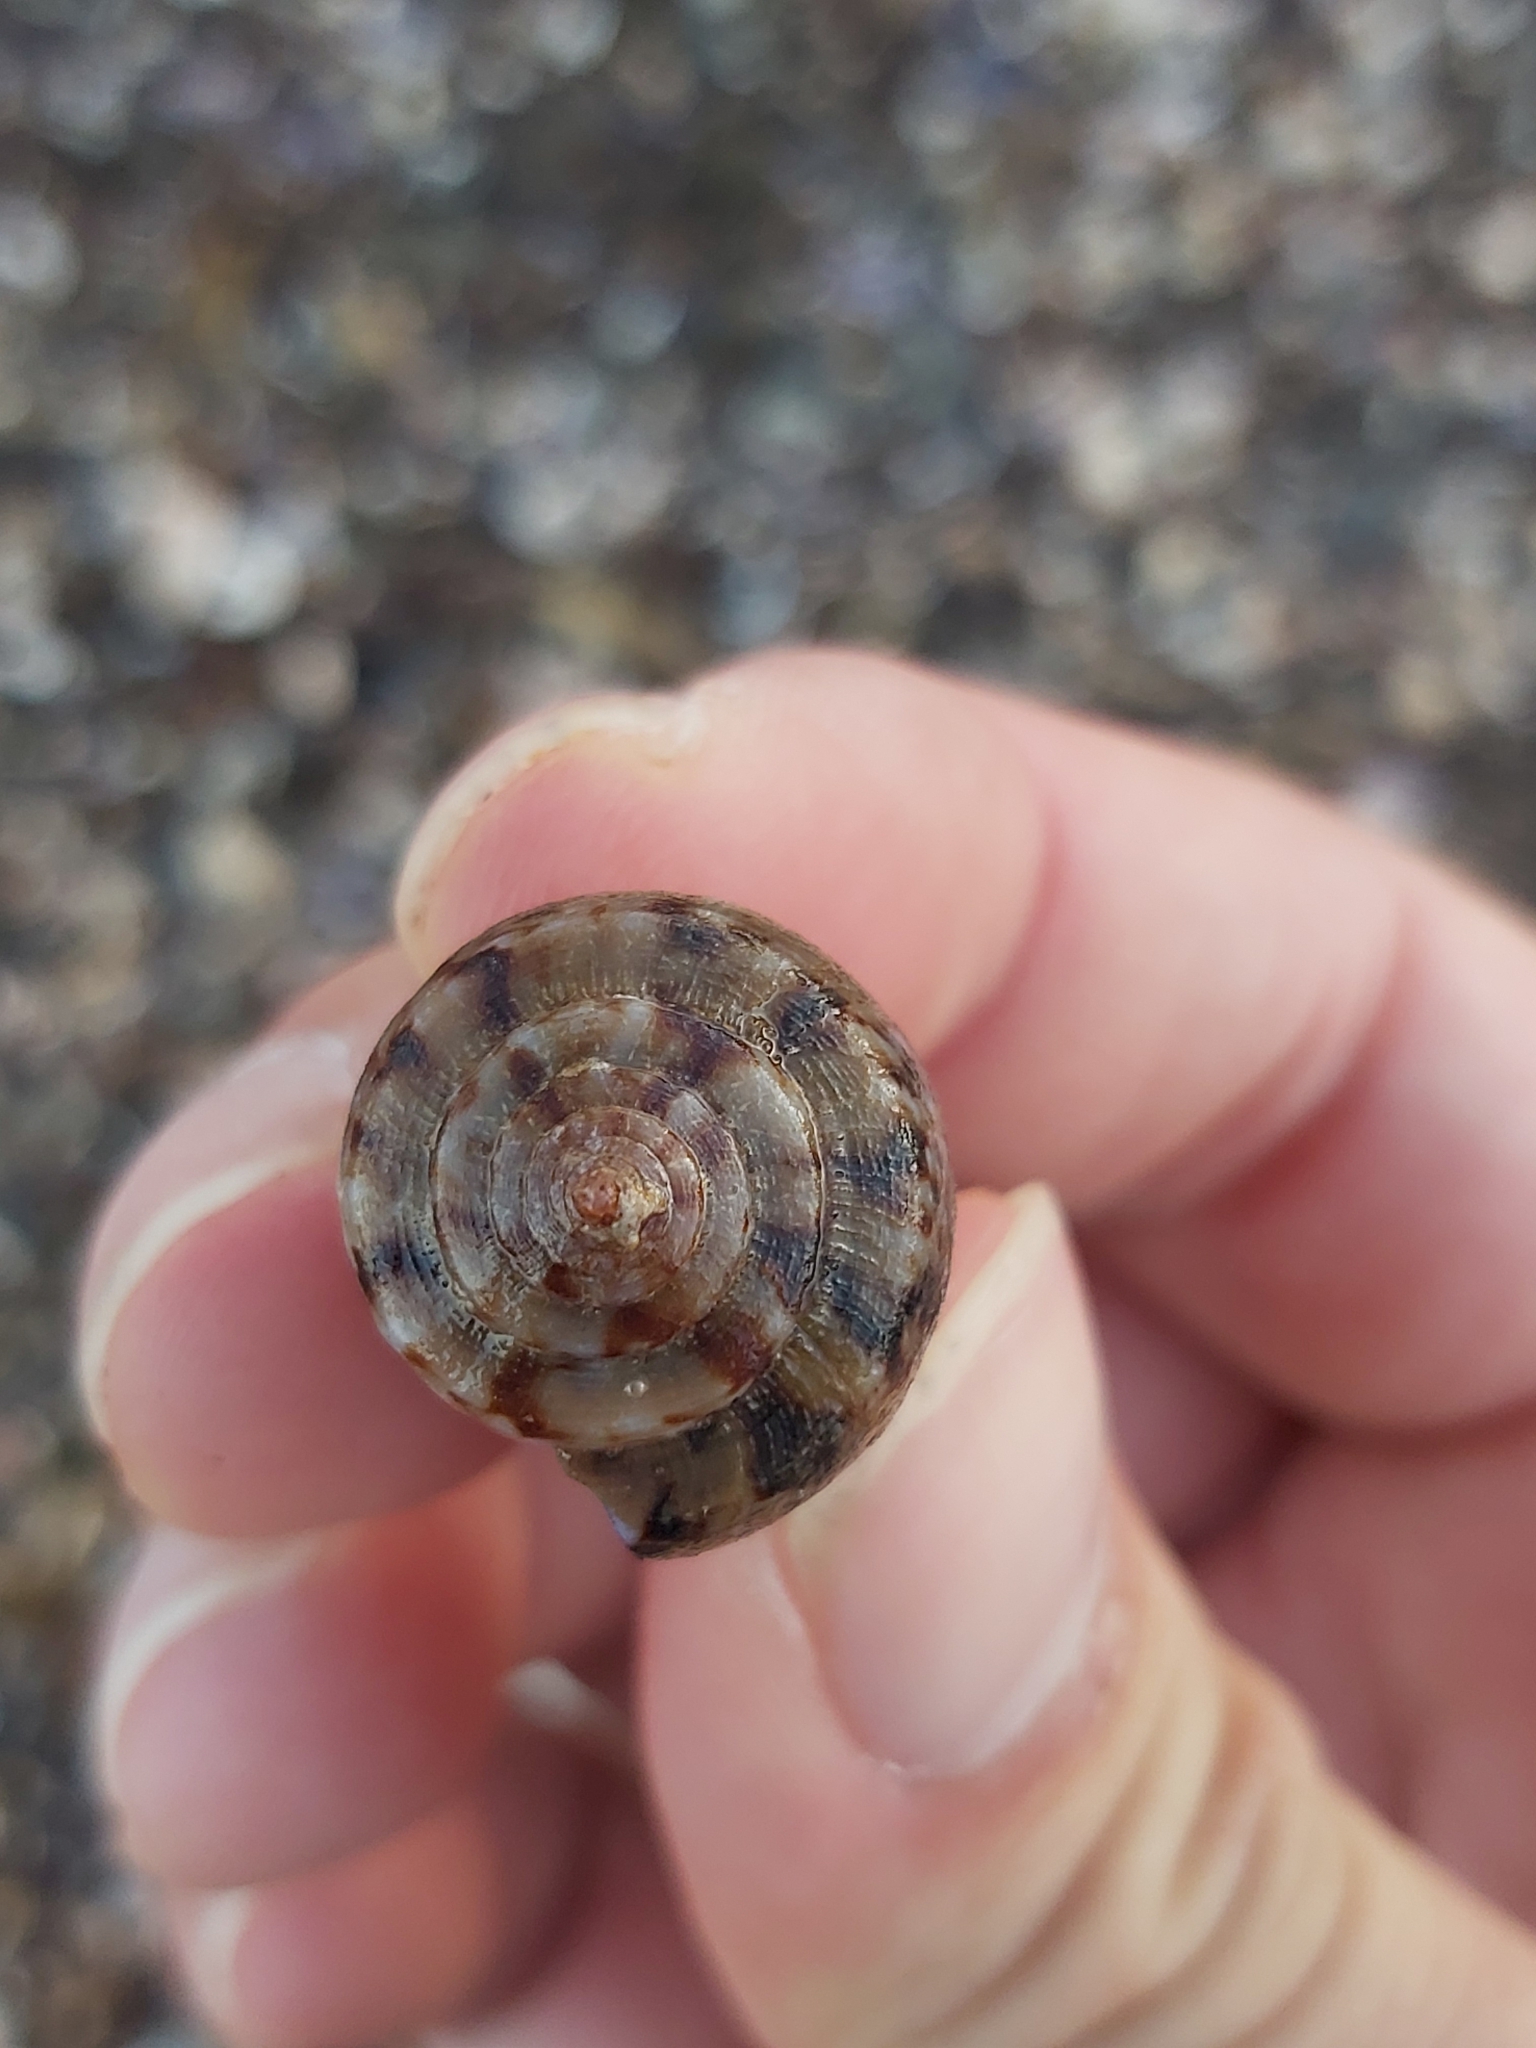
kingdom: Animalia
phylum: Mollusca
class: Gastropoda
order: Neogastropoda
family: Conidae
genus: Conus
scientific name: Conus anemone
